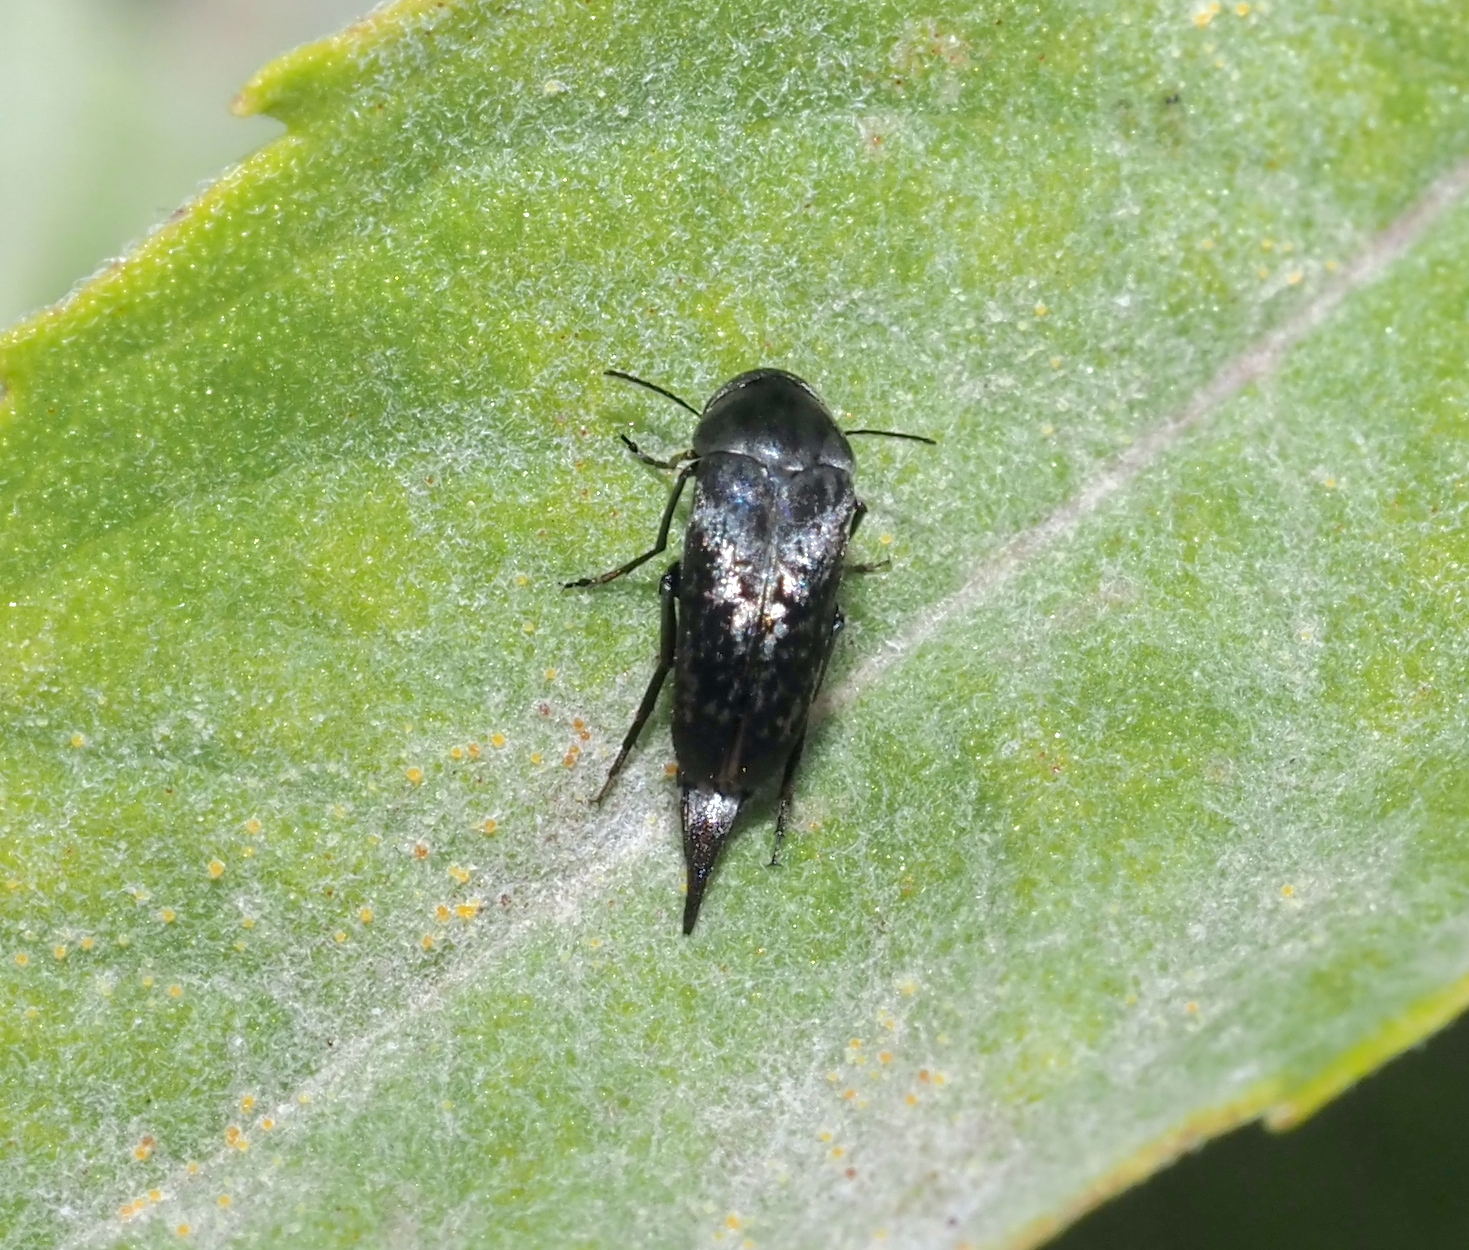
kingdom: Animalia
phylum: Arthropoda
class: Insecta
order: Coleoptera
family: Mordellidae
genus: Mordella
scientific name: Mordella marginata
